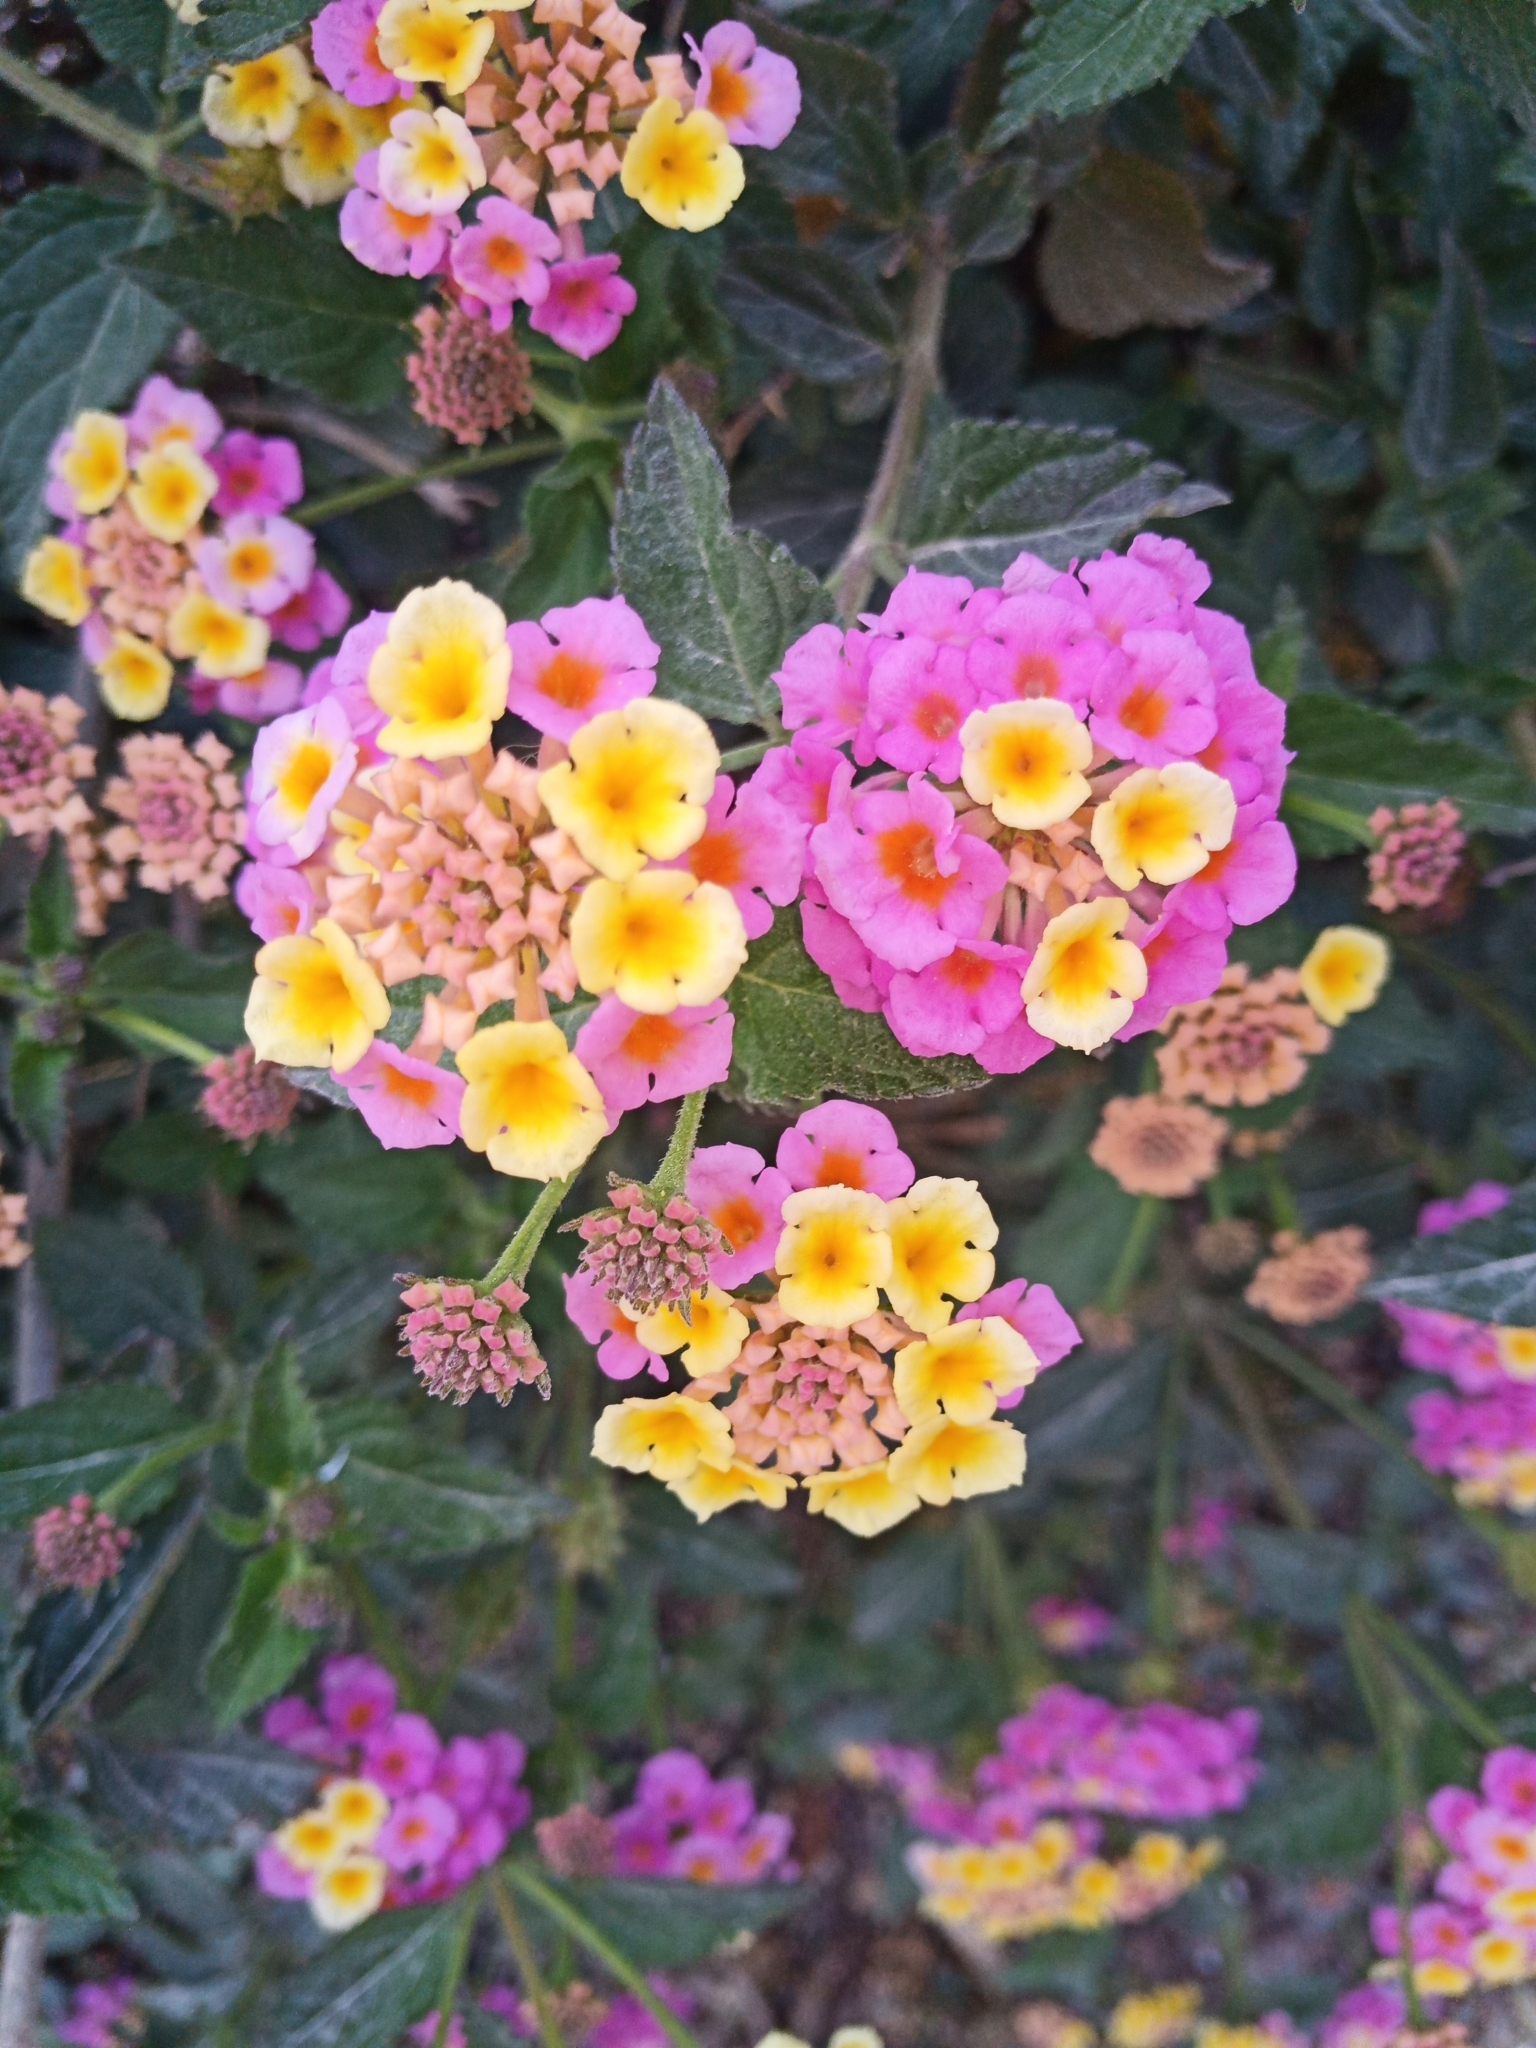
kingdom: Plantae
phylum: Tracheophyta
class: Magnoliopsida
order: Lamiales
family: Verbenaceae
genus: Lantana
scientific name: Lantana camara
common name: Lantana
